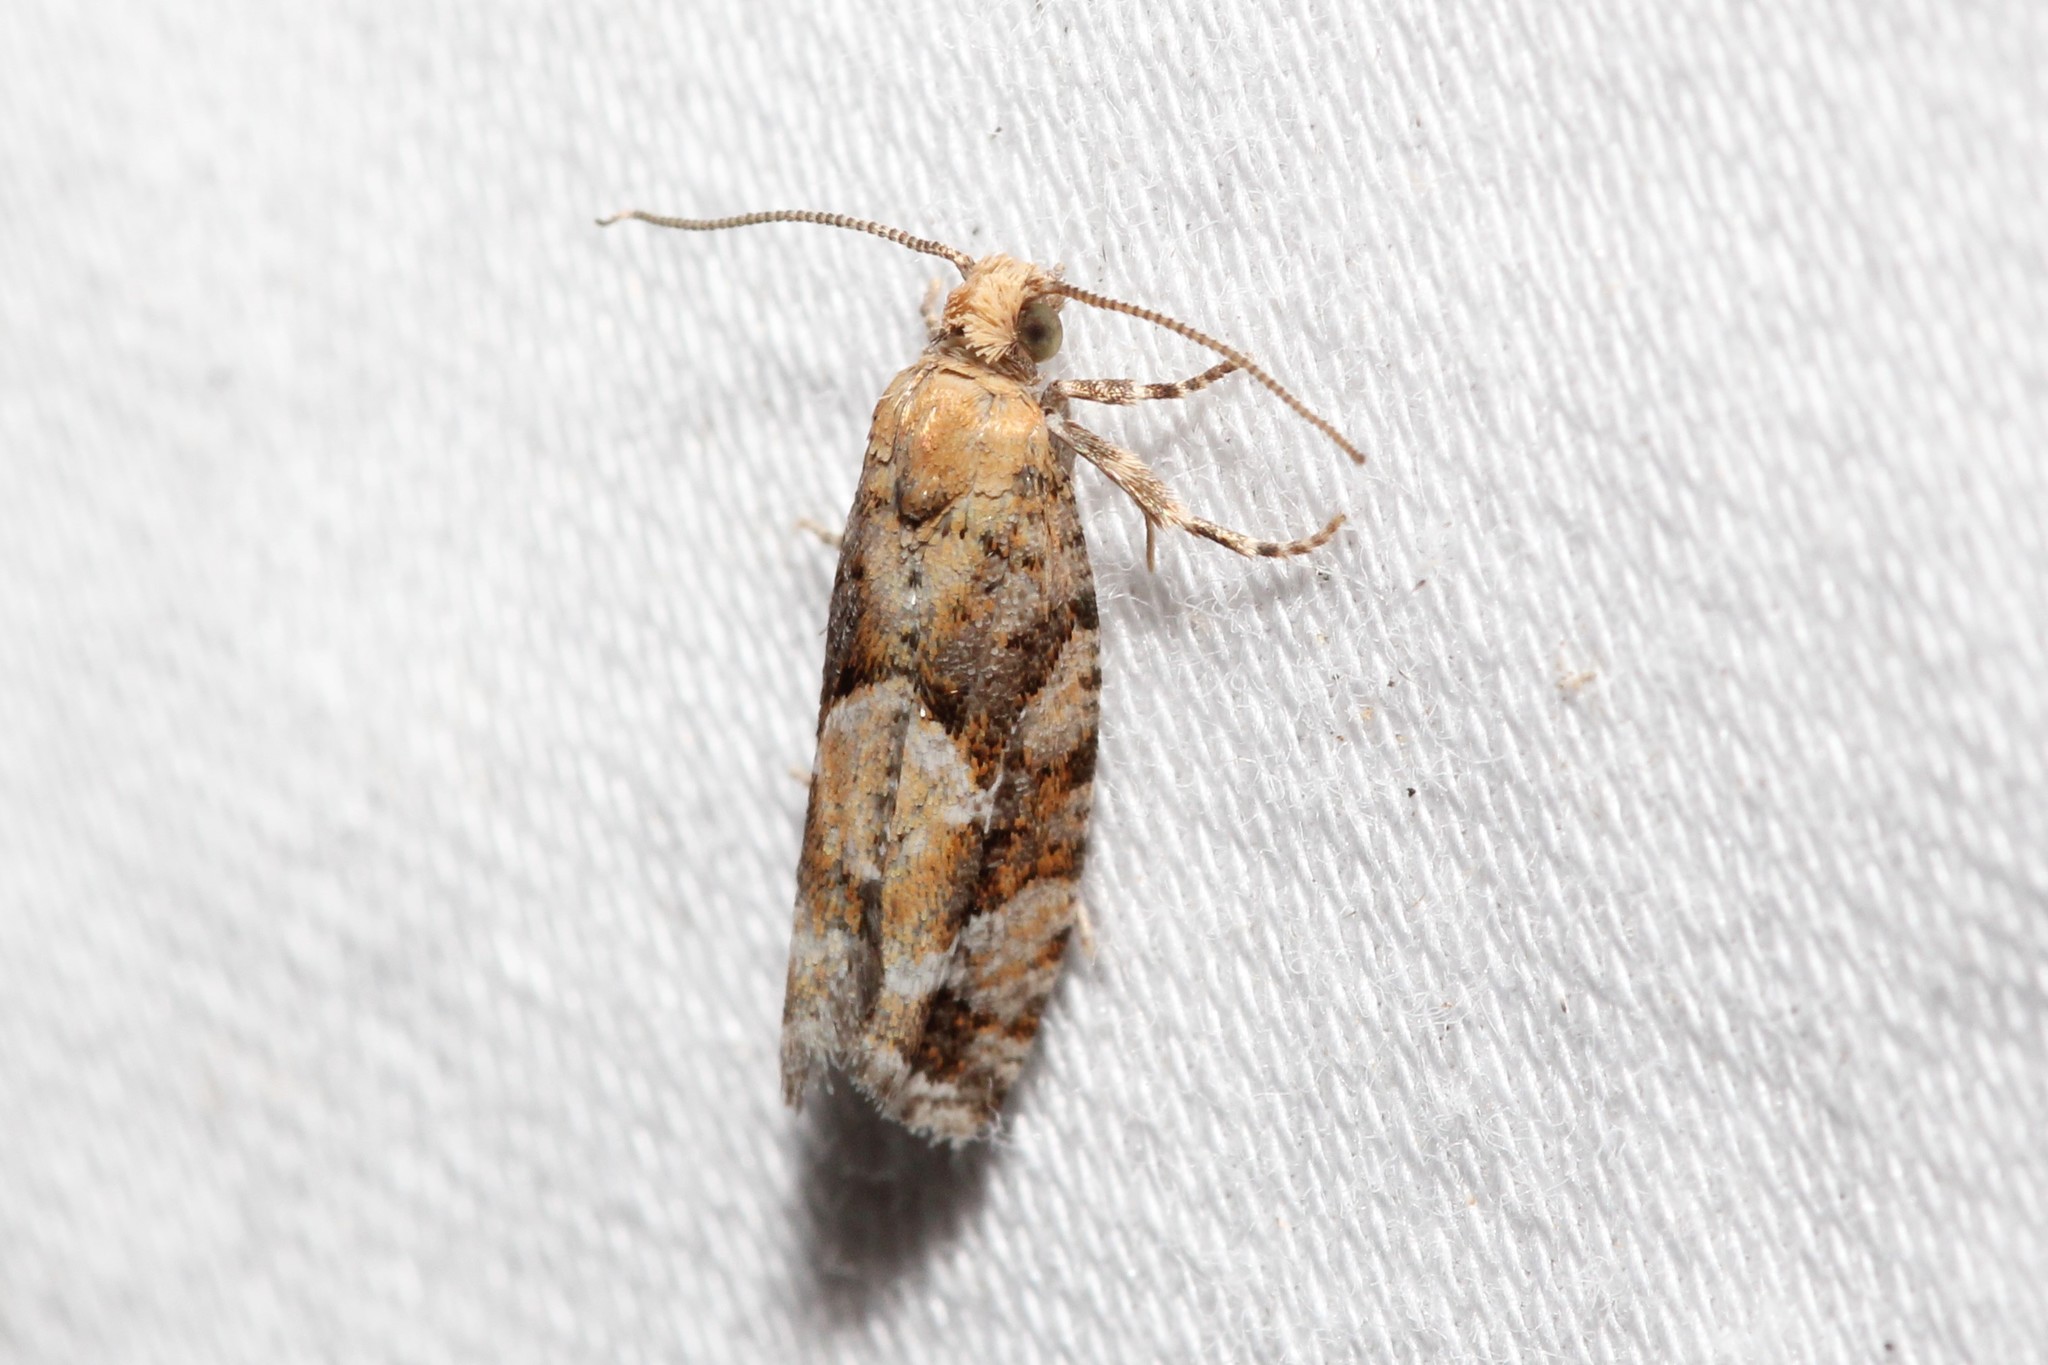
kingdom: Animalia
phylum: Arthropoda
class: Insecta
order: Lepidoptera
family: Tortricidae
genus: Eucopina
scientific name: Eucopina tocullionana
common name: White pinecone borer moth
